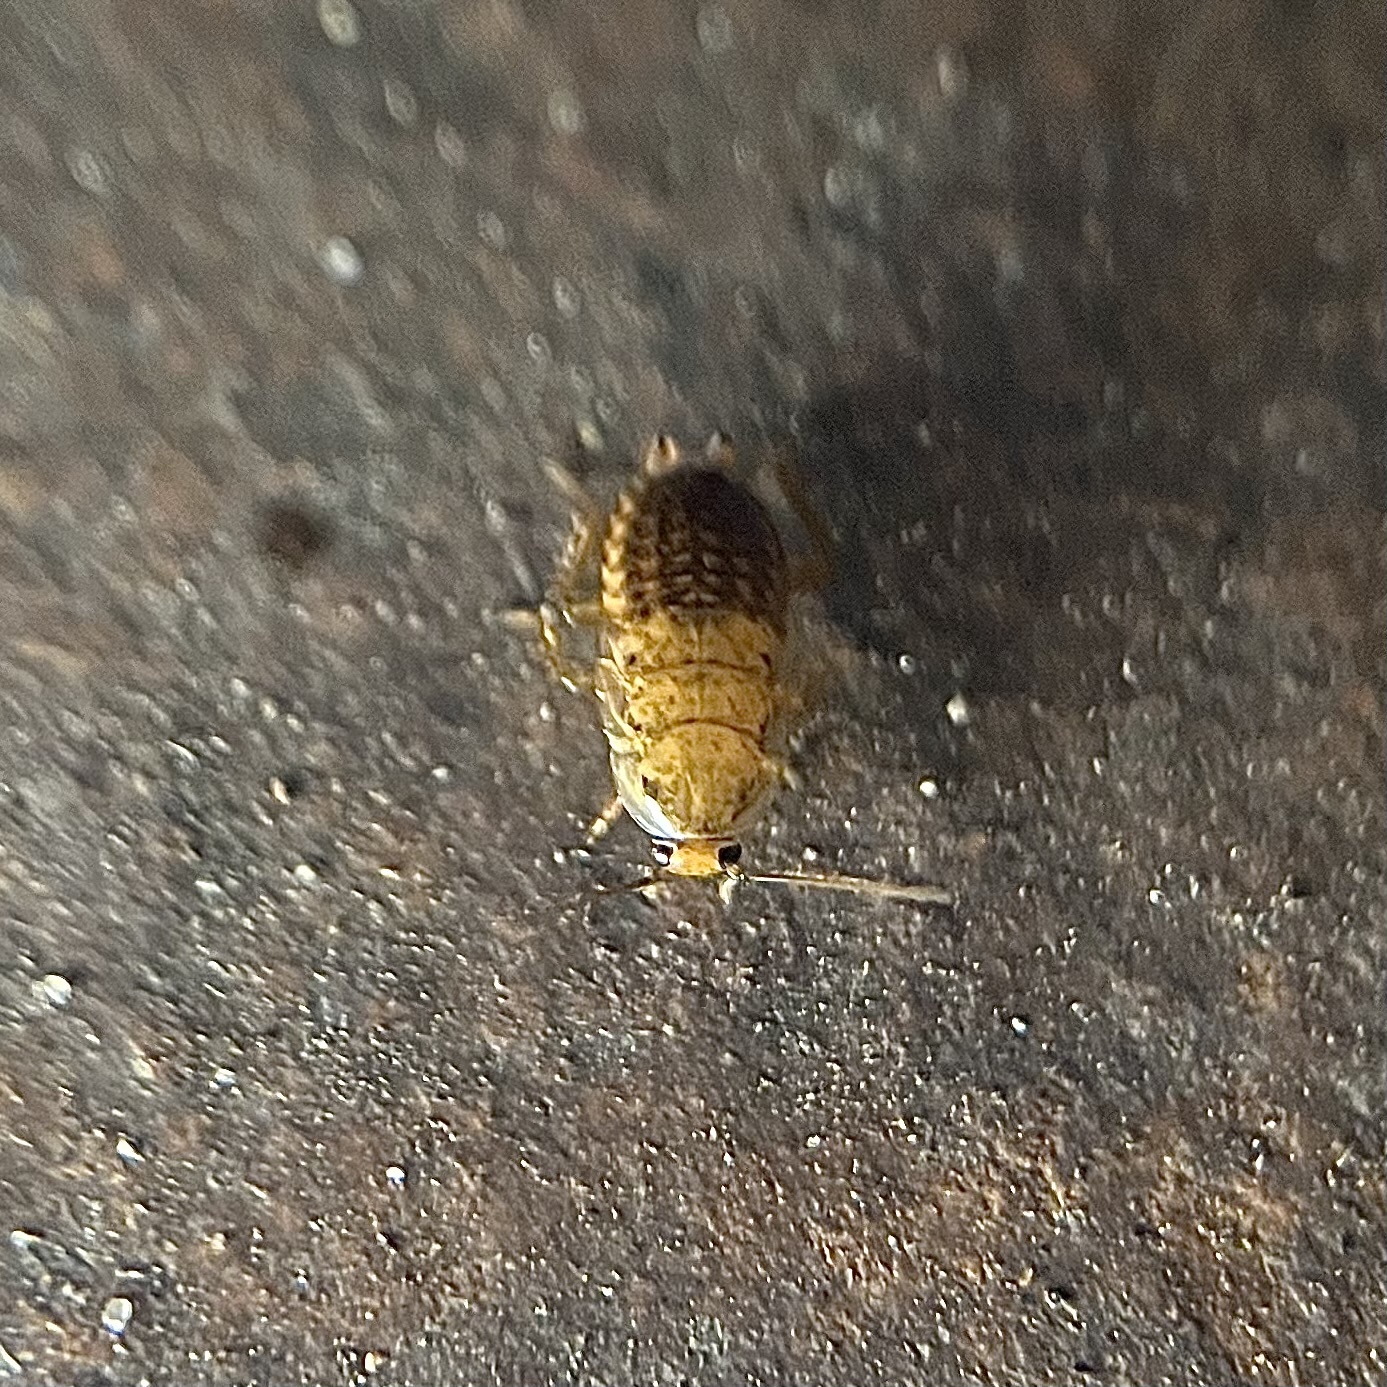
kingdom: Animalia
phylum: Arthropoda
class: Insecta
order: Blattodea
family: Ectobiidae
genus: Ectobius
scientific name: Ectobius lapponicus
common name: Dusky cockroach
